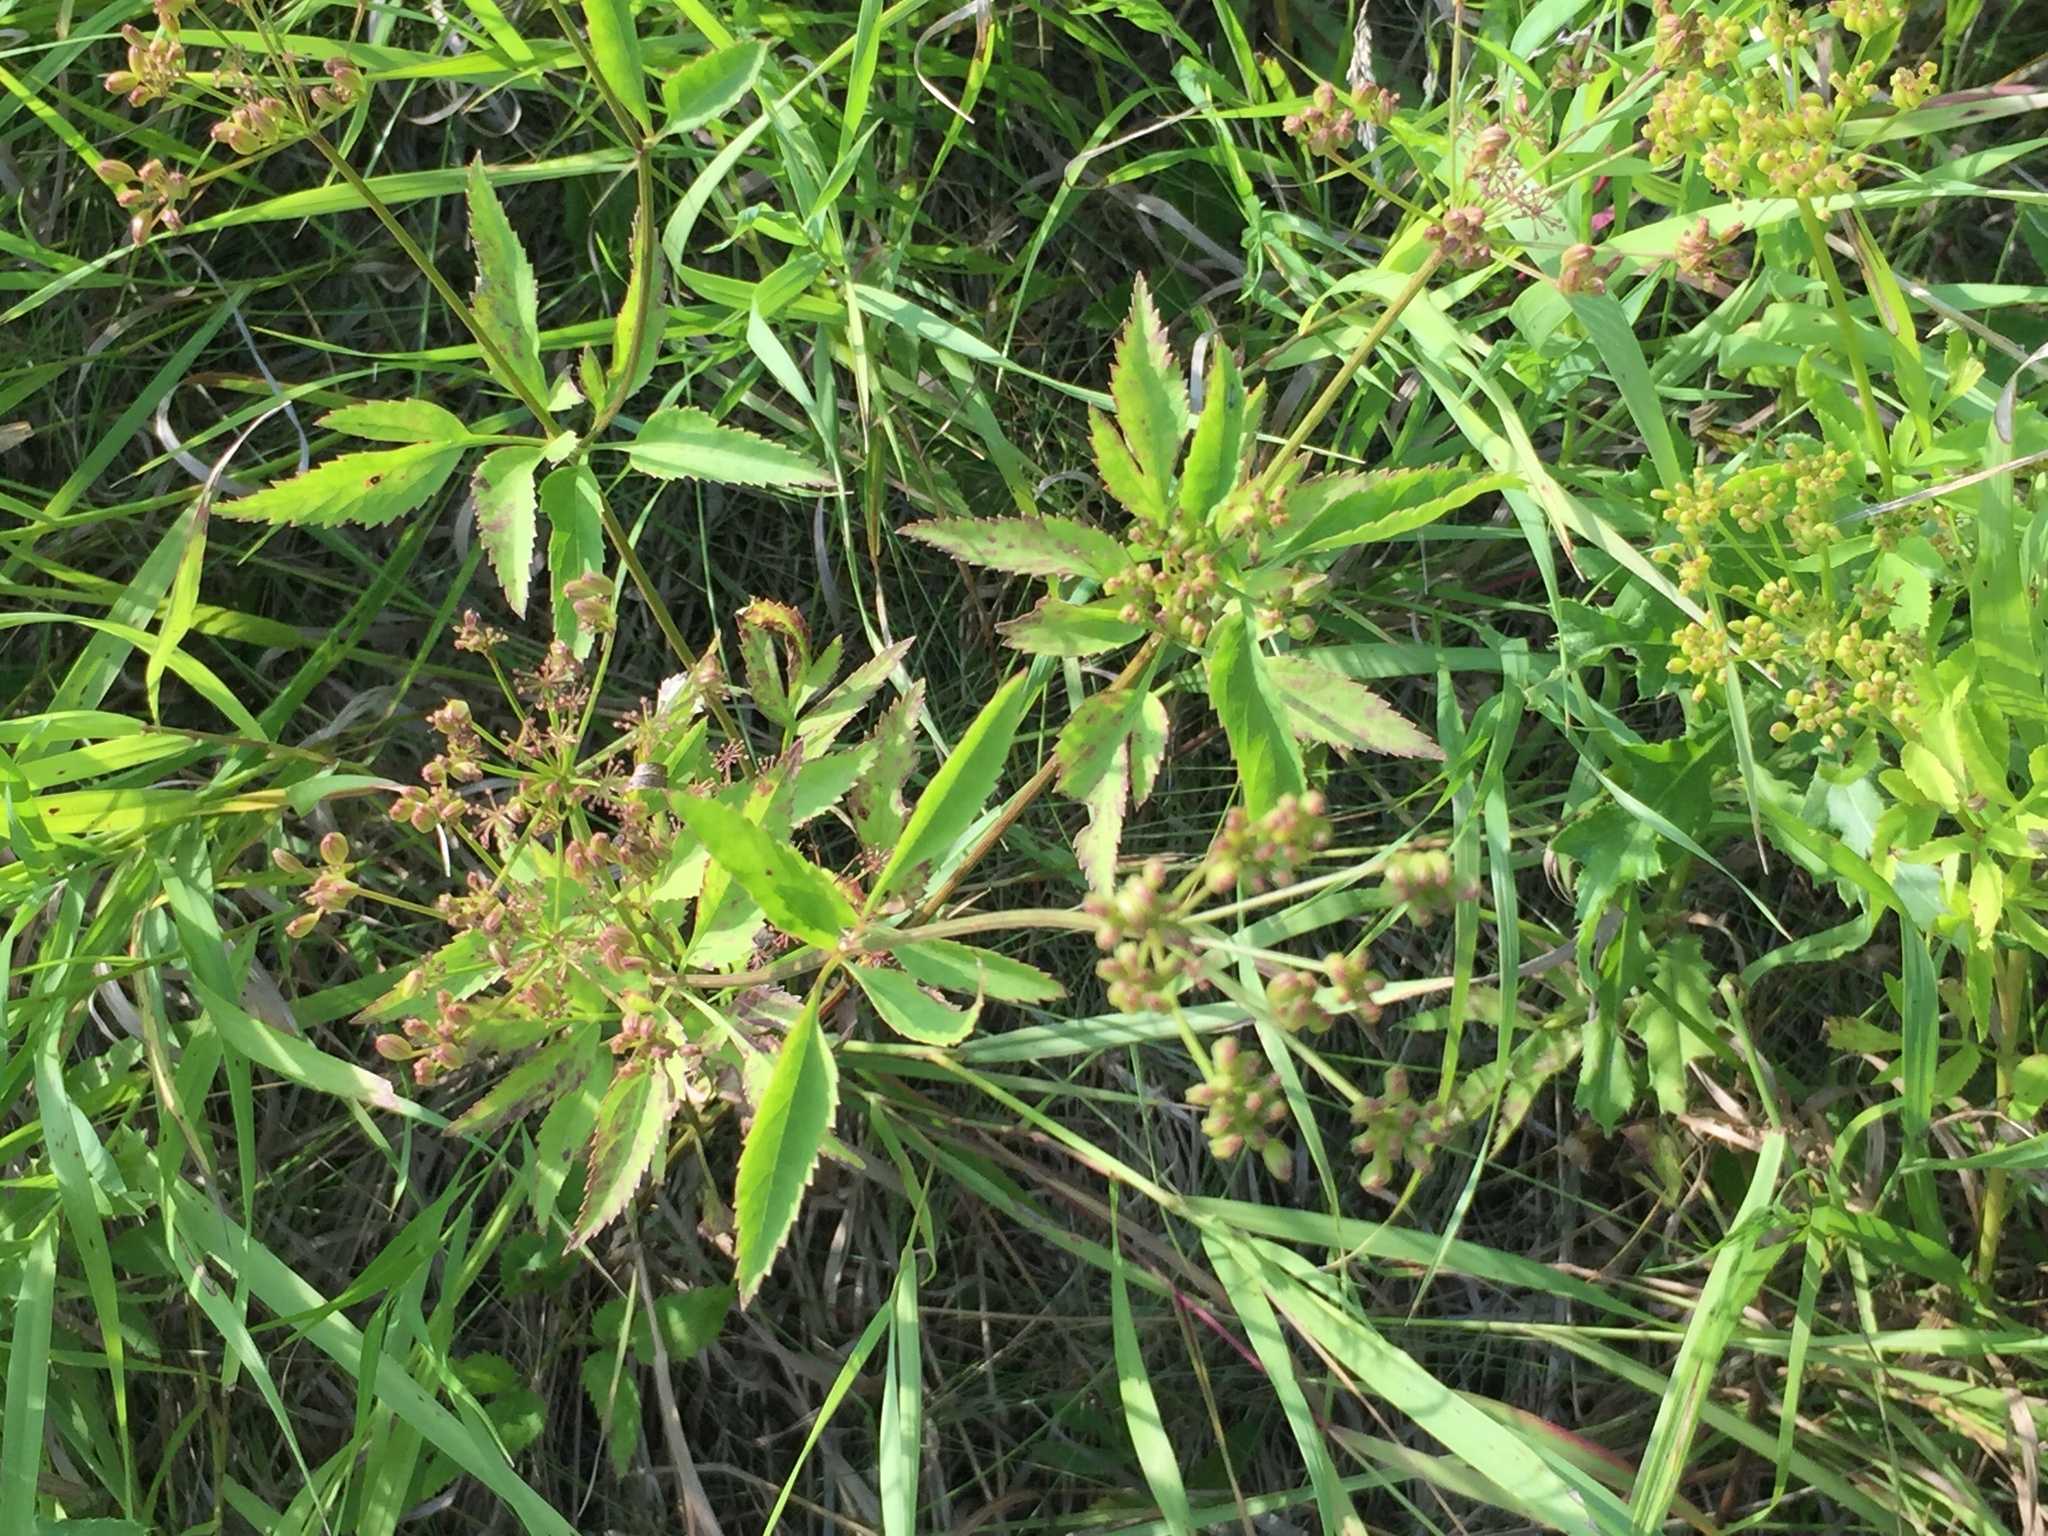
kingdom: Plantae
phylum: Tracheophyta
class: Magnoliopsida
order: Apiales
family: Apiaceae
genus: Zizia
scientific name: Zizia aurea
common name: Golden alexanders
